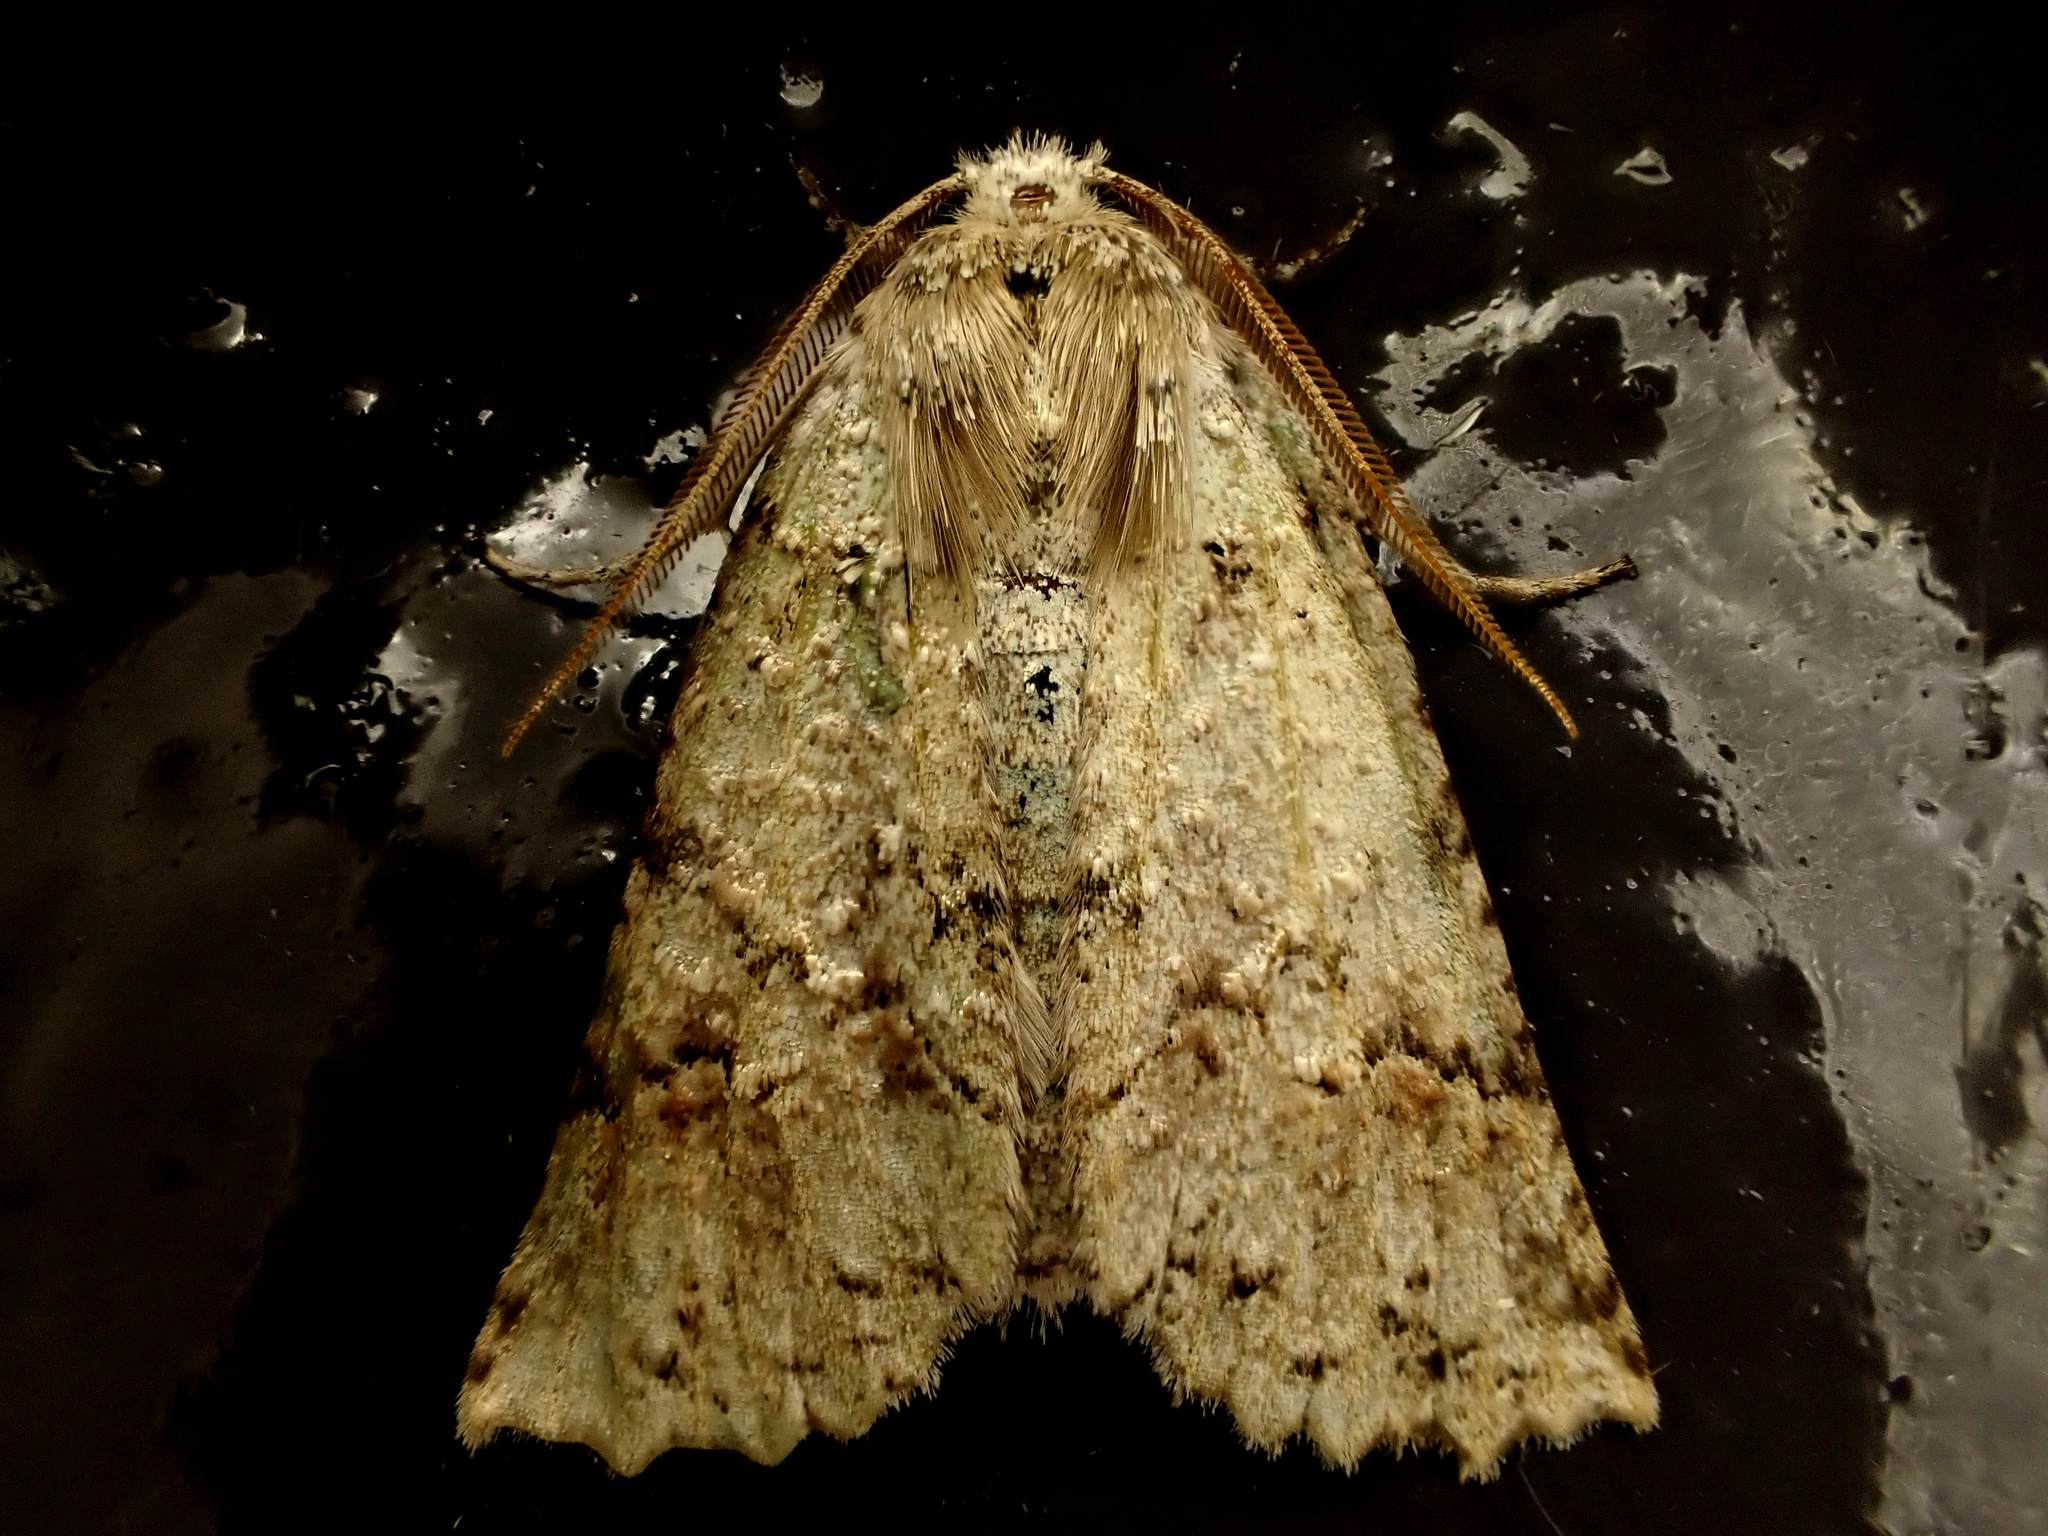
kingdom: Animalia
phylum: Arthropoda
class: Insecta
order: Lepidoptera
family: Geometridae
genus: Declana
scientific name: Declana floccosa
